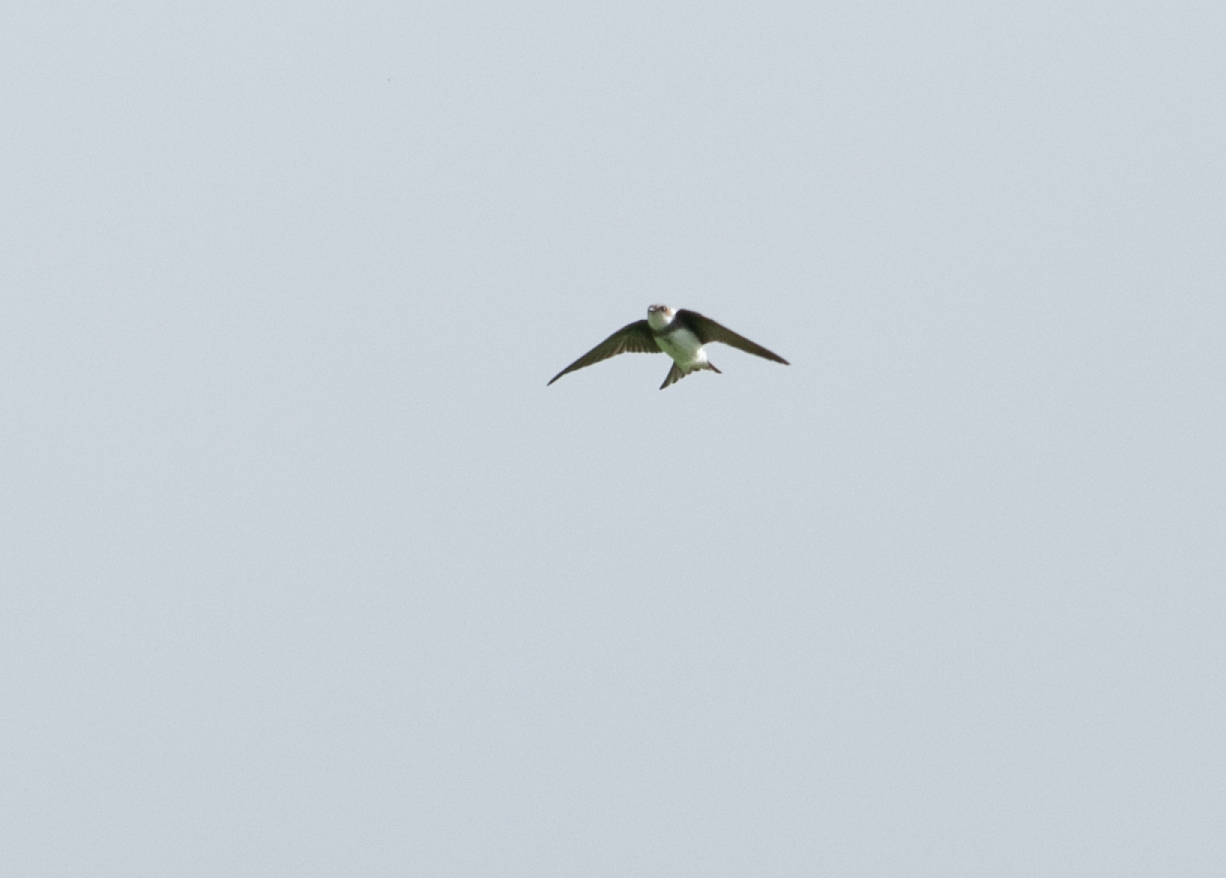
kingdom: Animalia
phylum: Chordata
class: Aves
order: Passeriformes
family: Hirundinidae
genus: Riparia
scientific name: Riparia riparia
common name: Sand martin
